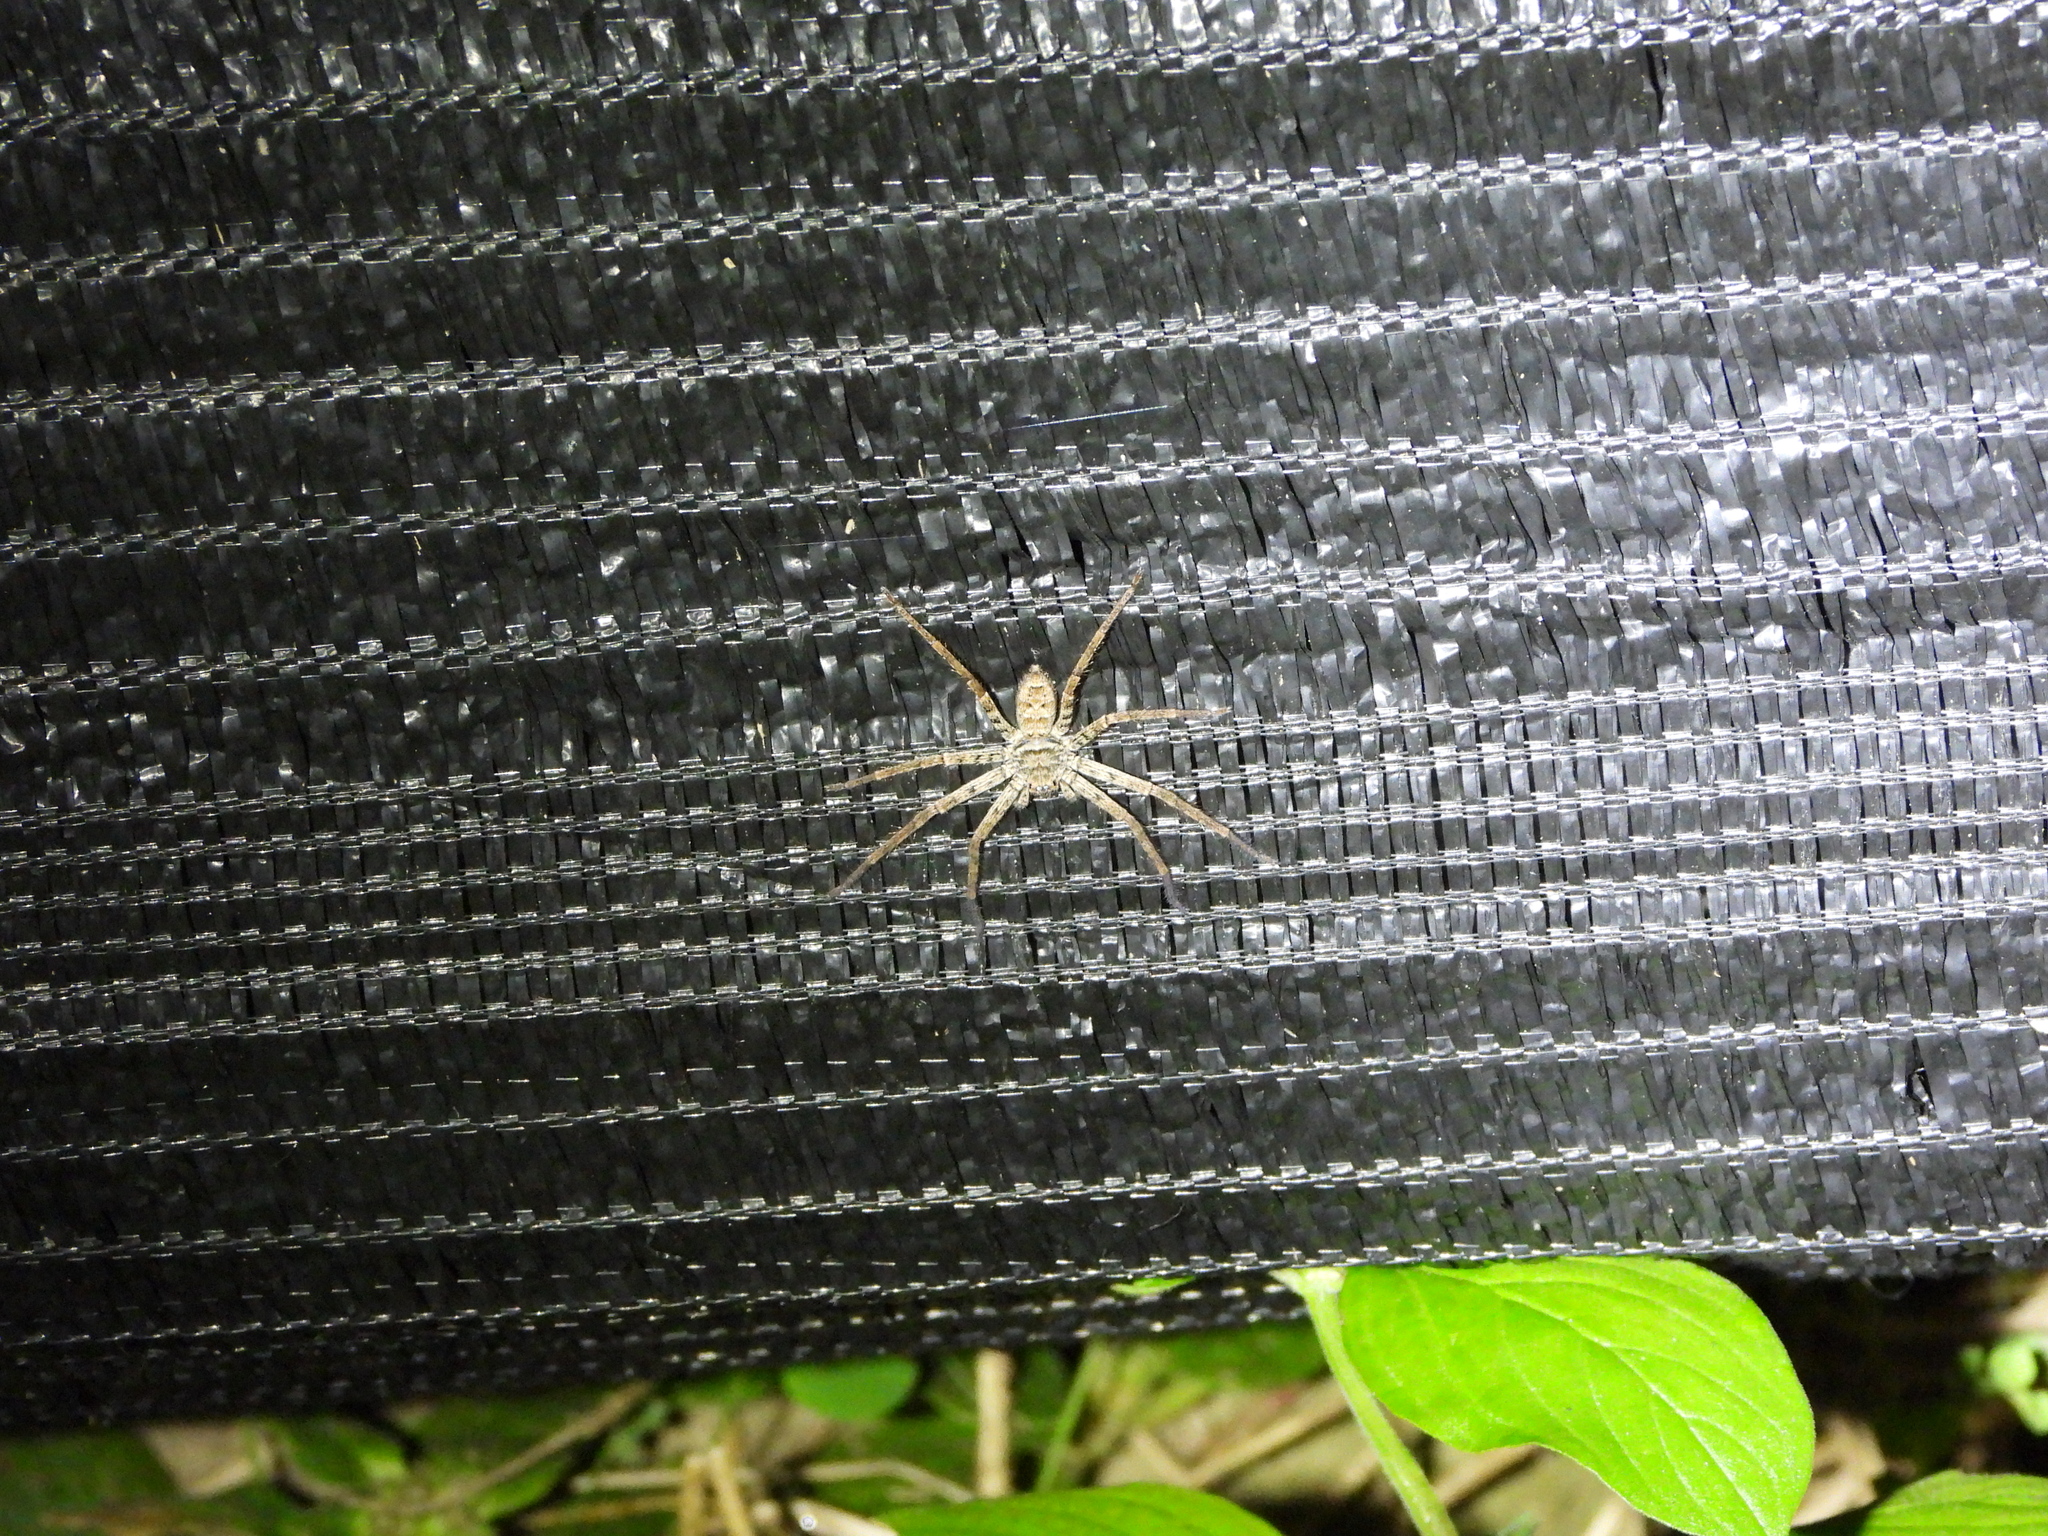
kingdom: Animalia
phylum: Arthropoda
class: Arachnida
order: Araneae
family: Sparassidae
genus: Heteropoda
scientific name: Heteropoda venatoria
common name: Huntsman spider
